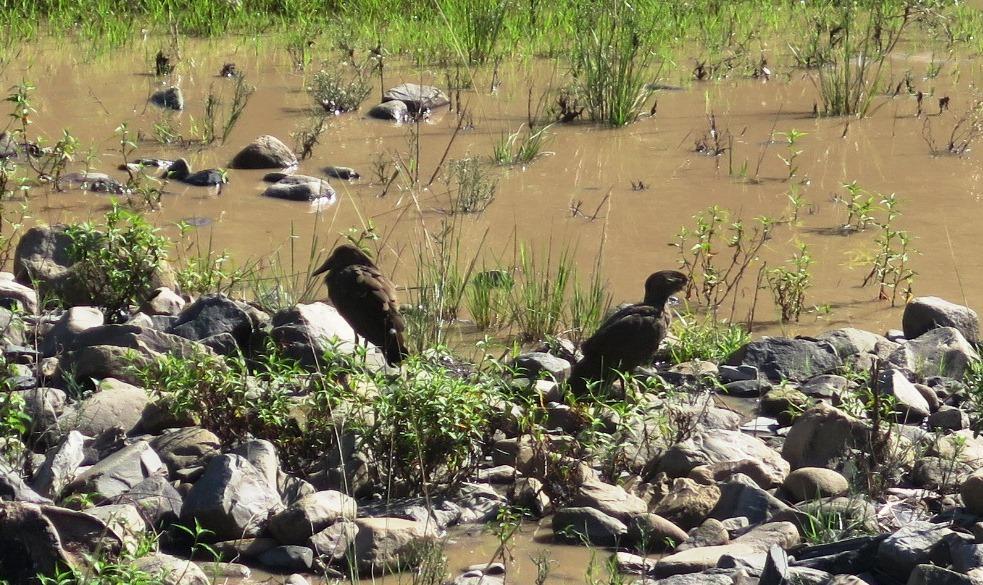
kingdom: Animalia
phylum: Chordata
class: Aves
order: Pelecaniformes
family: Scopidae
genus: Scopus
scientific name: Scopus umbretta
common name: Hamerkop
